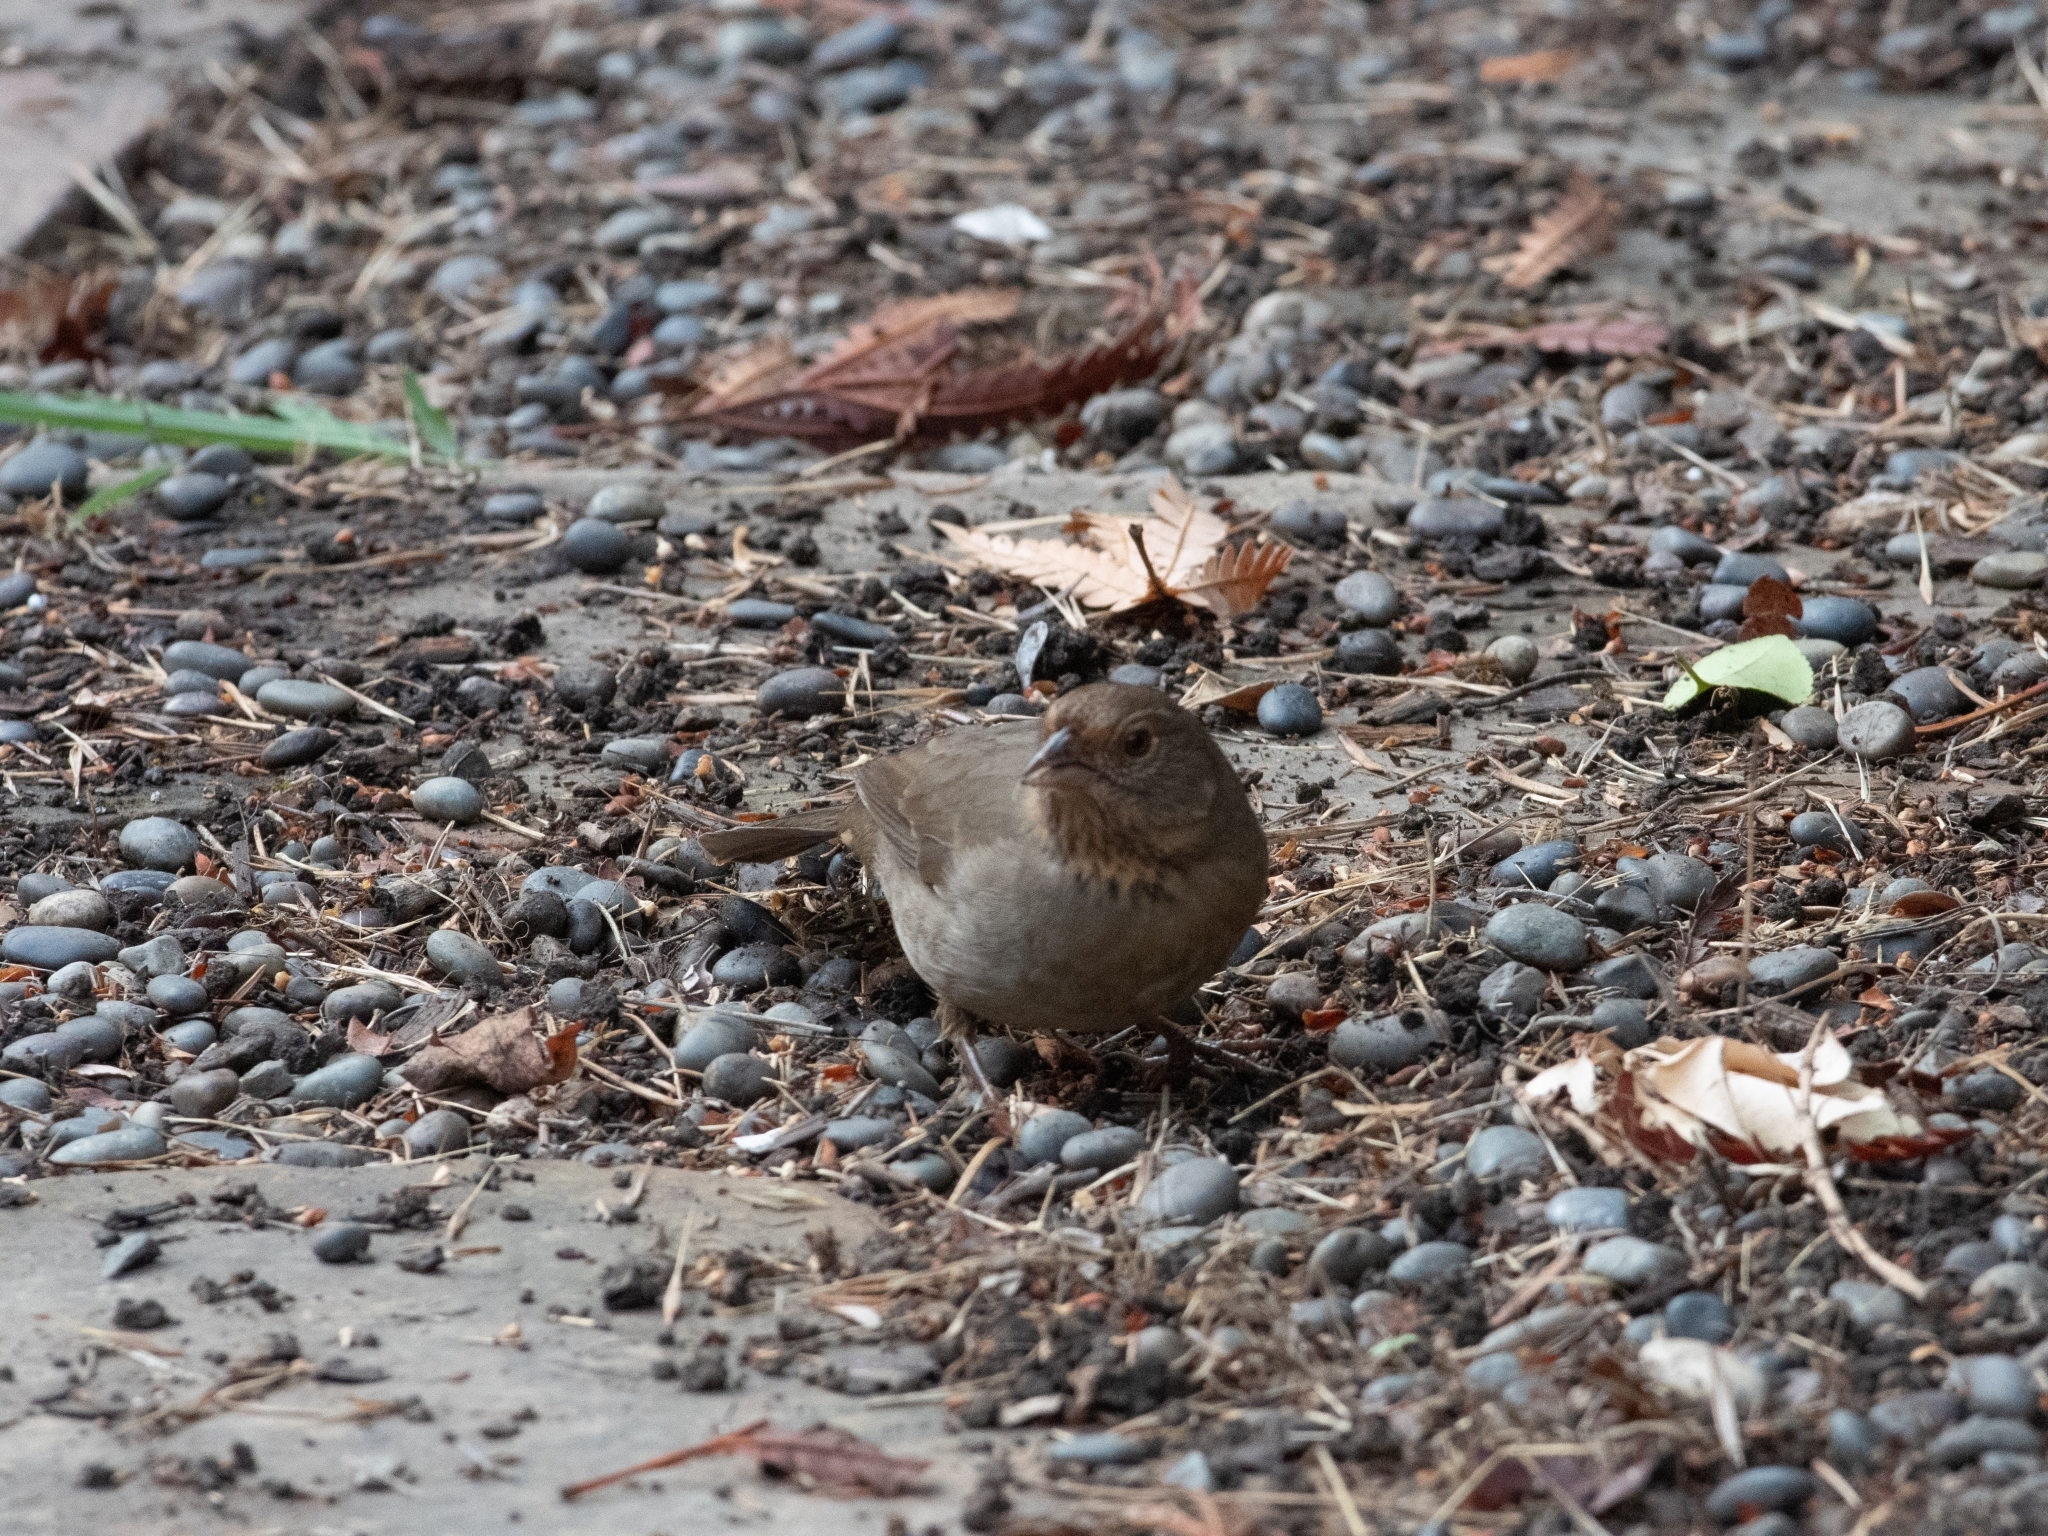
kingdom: Animalia
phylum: Chordata
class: Aves
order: Passeriformes
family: Passerellidae
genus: Melozone
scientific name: Melozone crissalis
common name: California towhee
